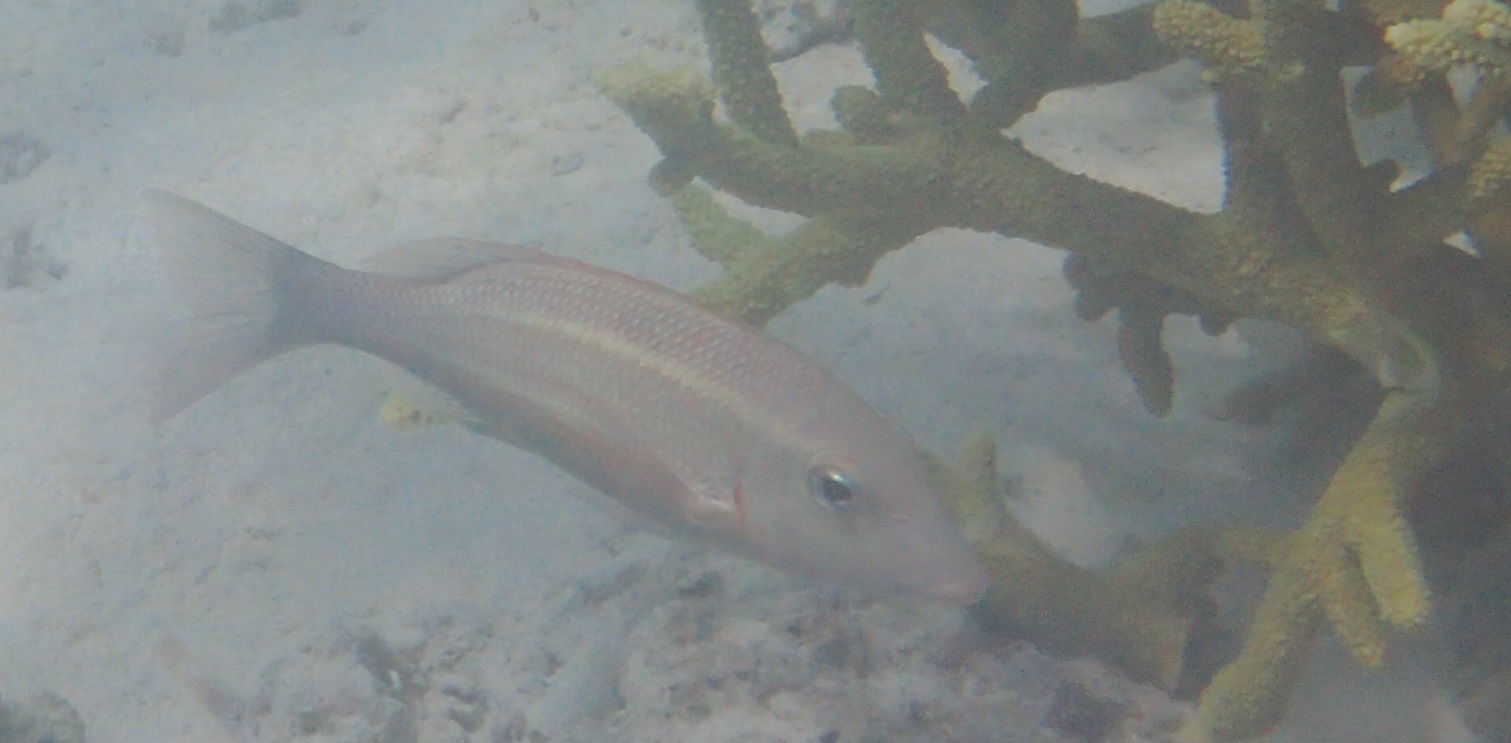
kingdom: Animalia
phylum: Chordata
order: Perciformes
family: Lethrinidae
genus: Lethrinus
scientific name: Lethrinus obsoletus
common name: Orange-striped emperor
